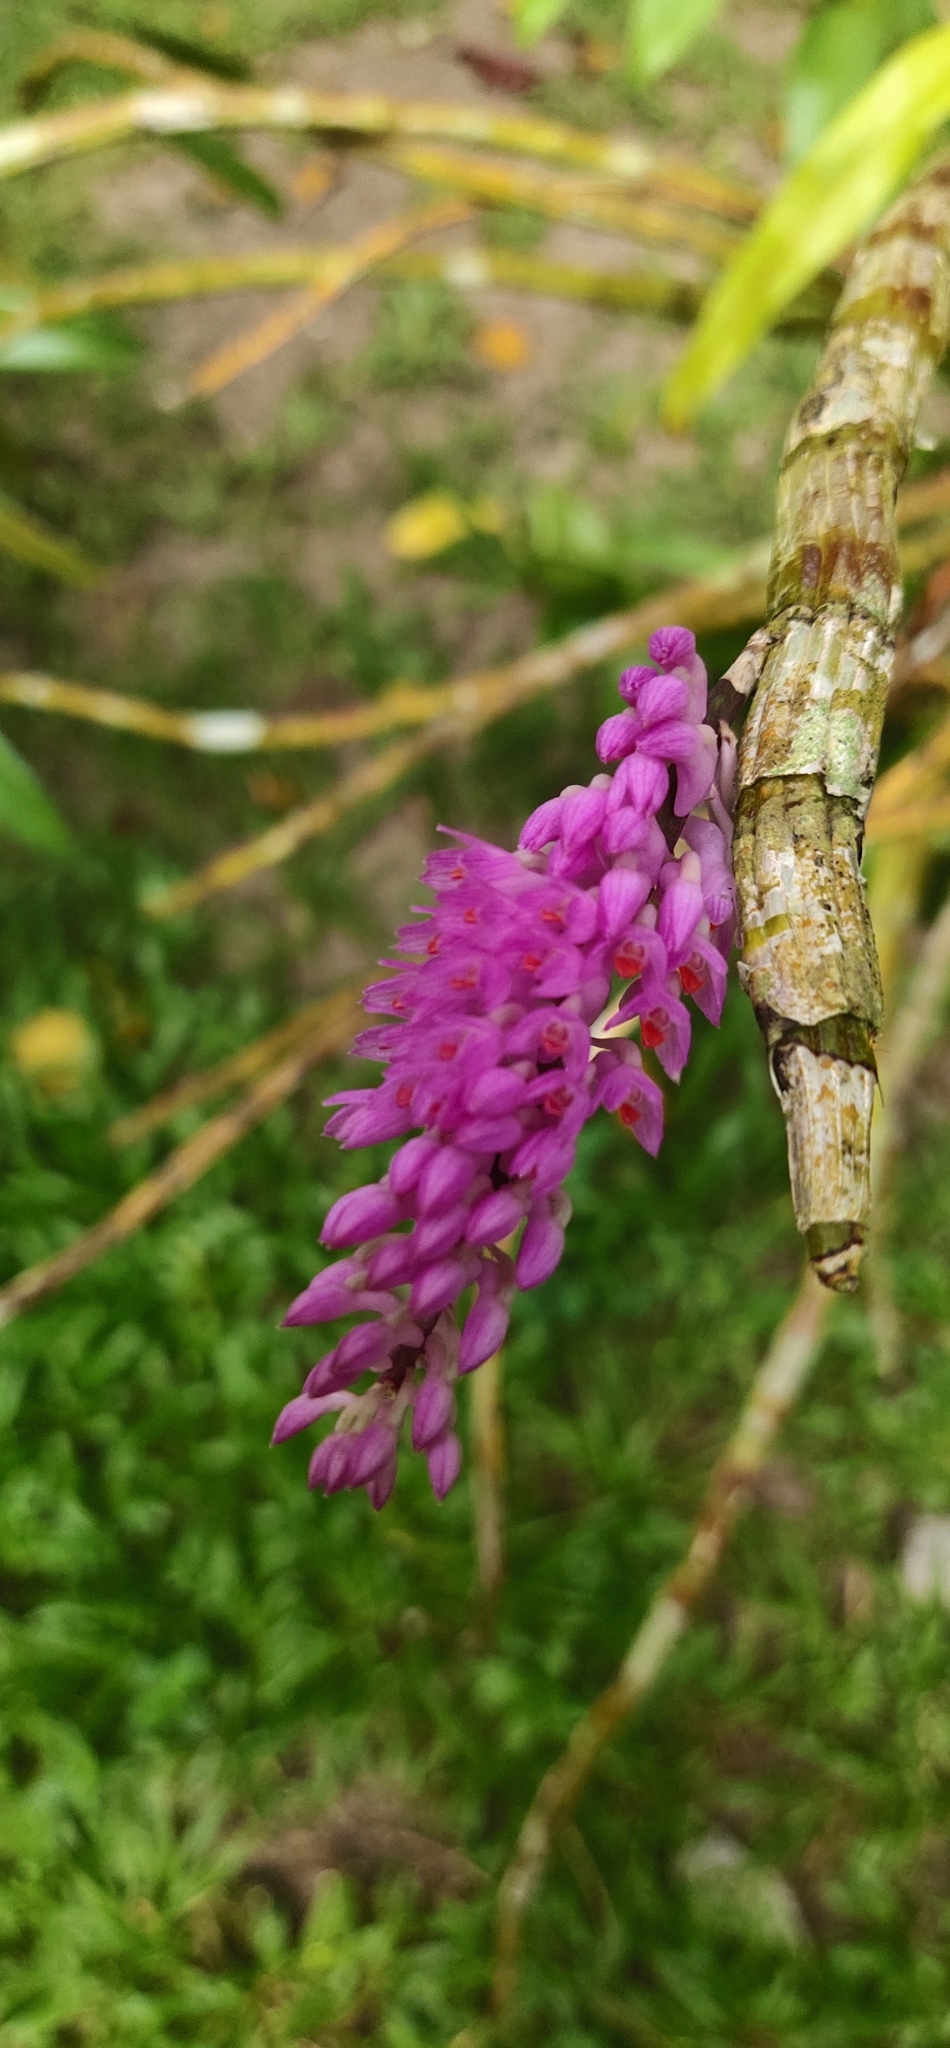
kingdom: Plantae
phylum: Tracheophyta
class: Liliopsida
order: Asparagales
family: Orchidaceae
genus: Dendrobium
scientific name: Dendrobium secundum
